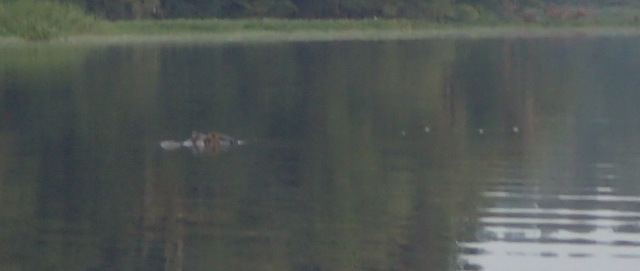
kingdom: Animalia
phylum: Chordata
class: Crocodylia
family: Alligatoridae
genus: Alligator
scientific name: Alligator mississippiensis
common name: American alligator
